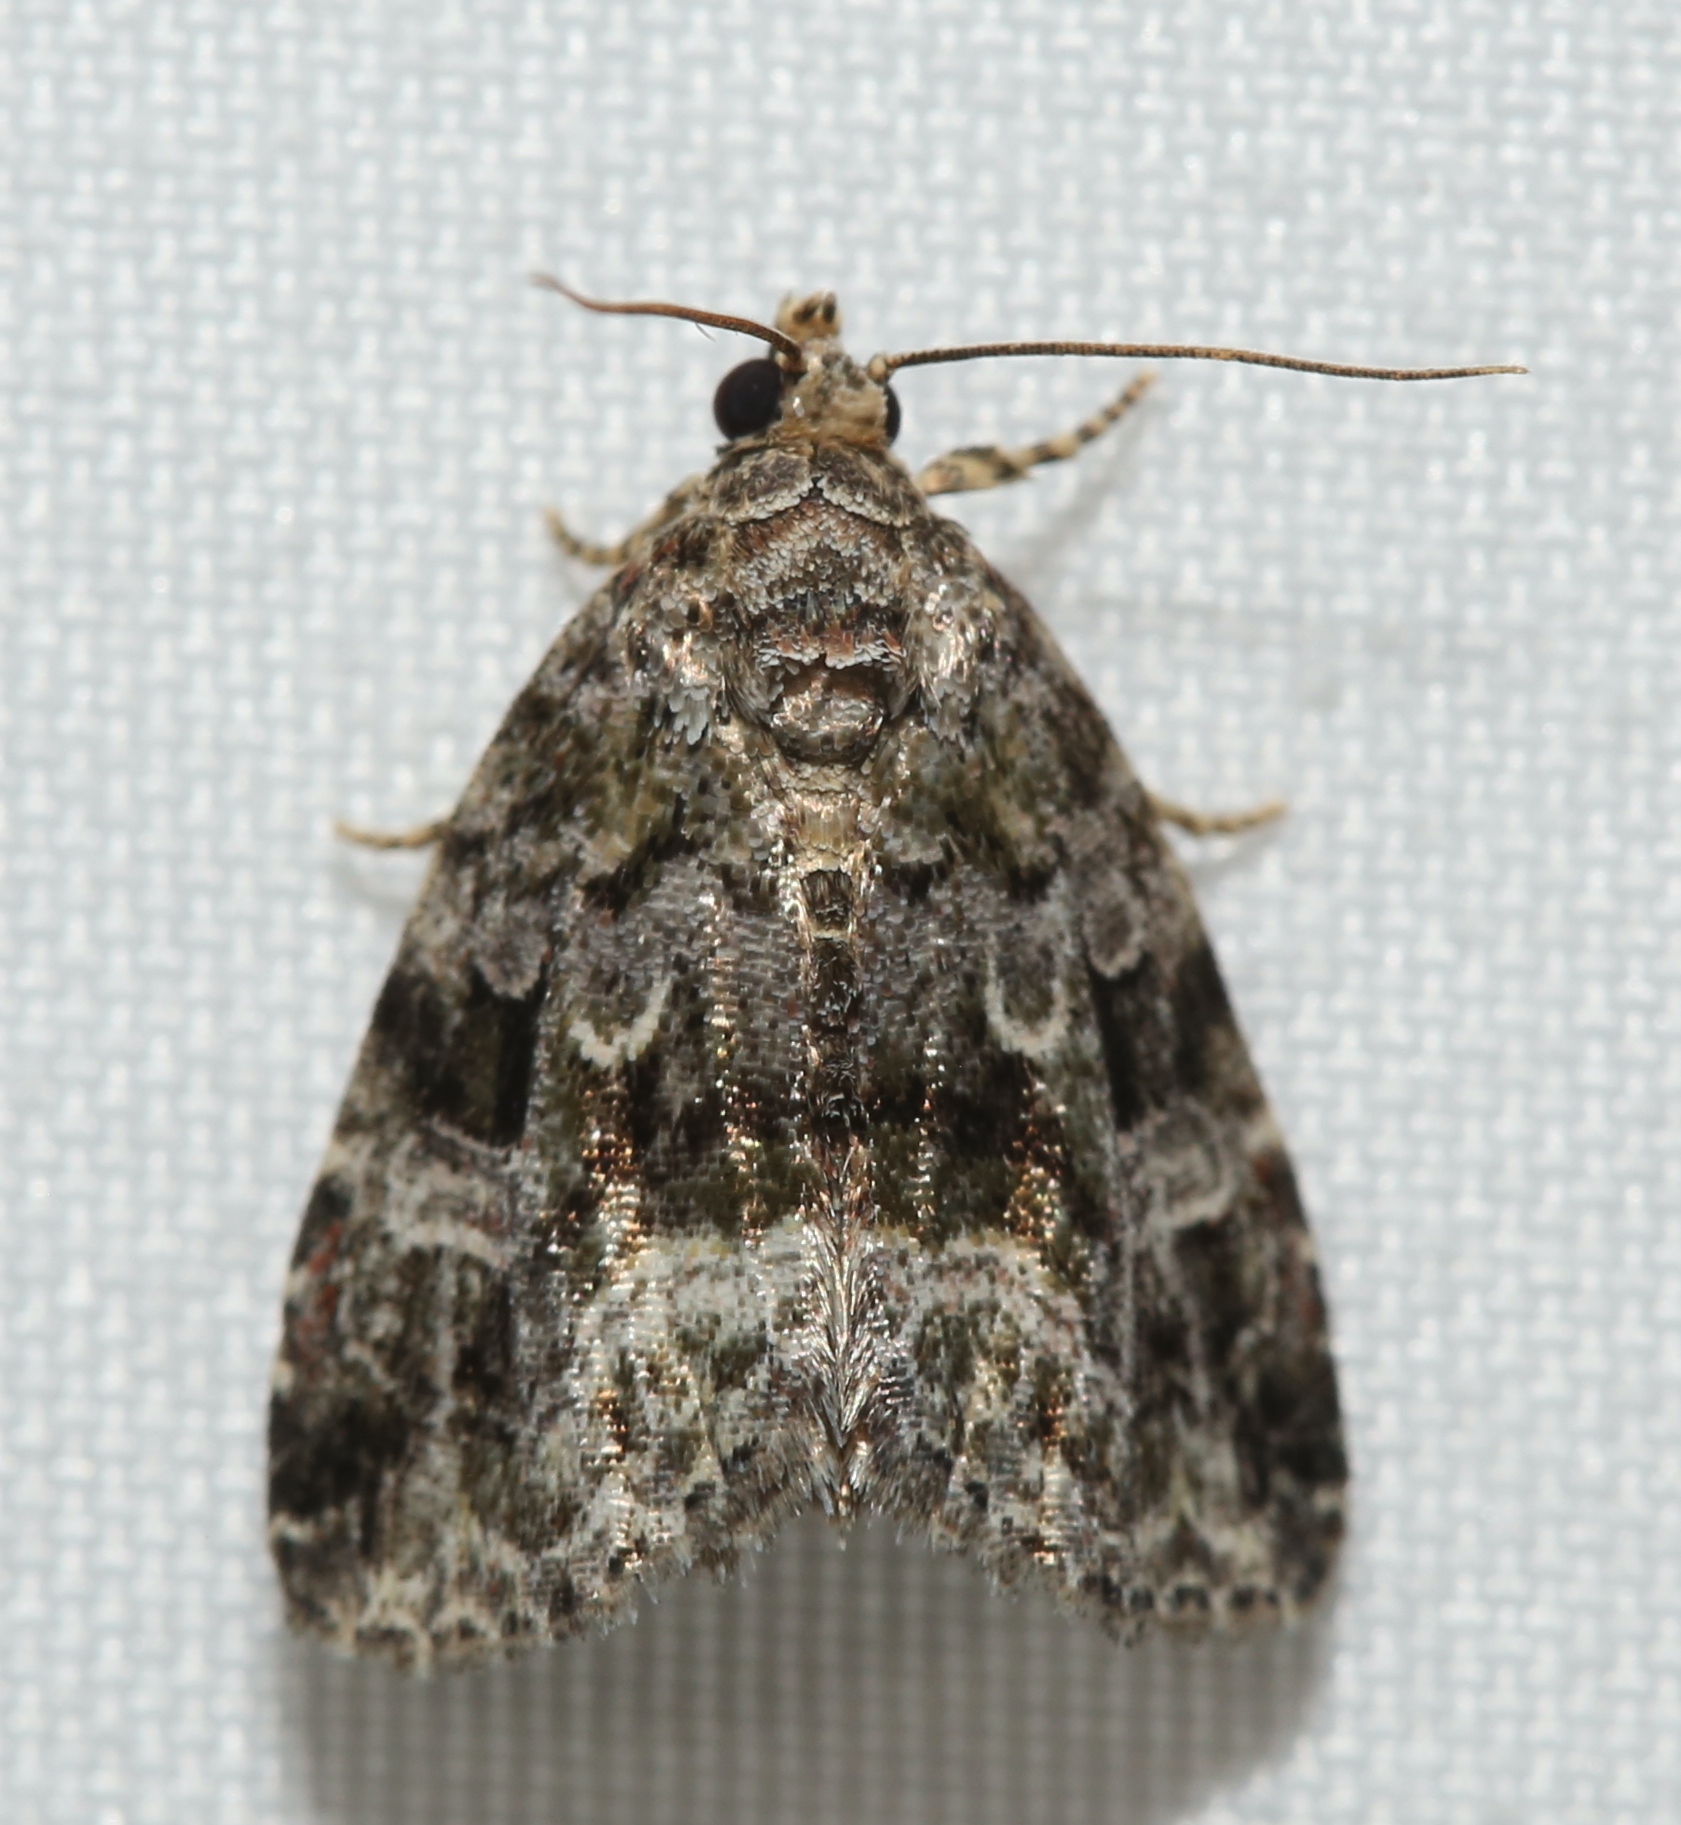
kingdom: Animalia
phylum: Arthropoda
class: Insecta
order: Lepidoptera
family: Noctuidae
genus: Protodeltote
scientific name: Protodeltote muscosula
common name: Large mossy glyph
